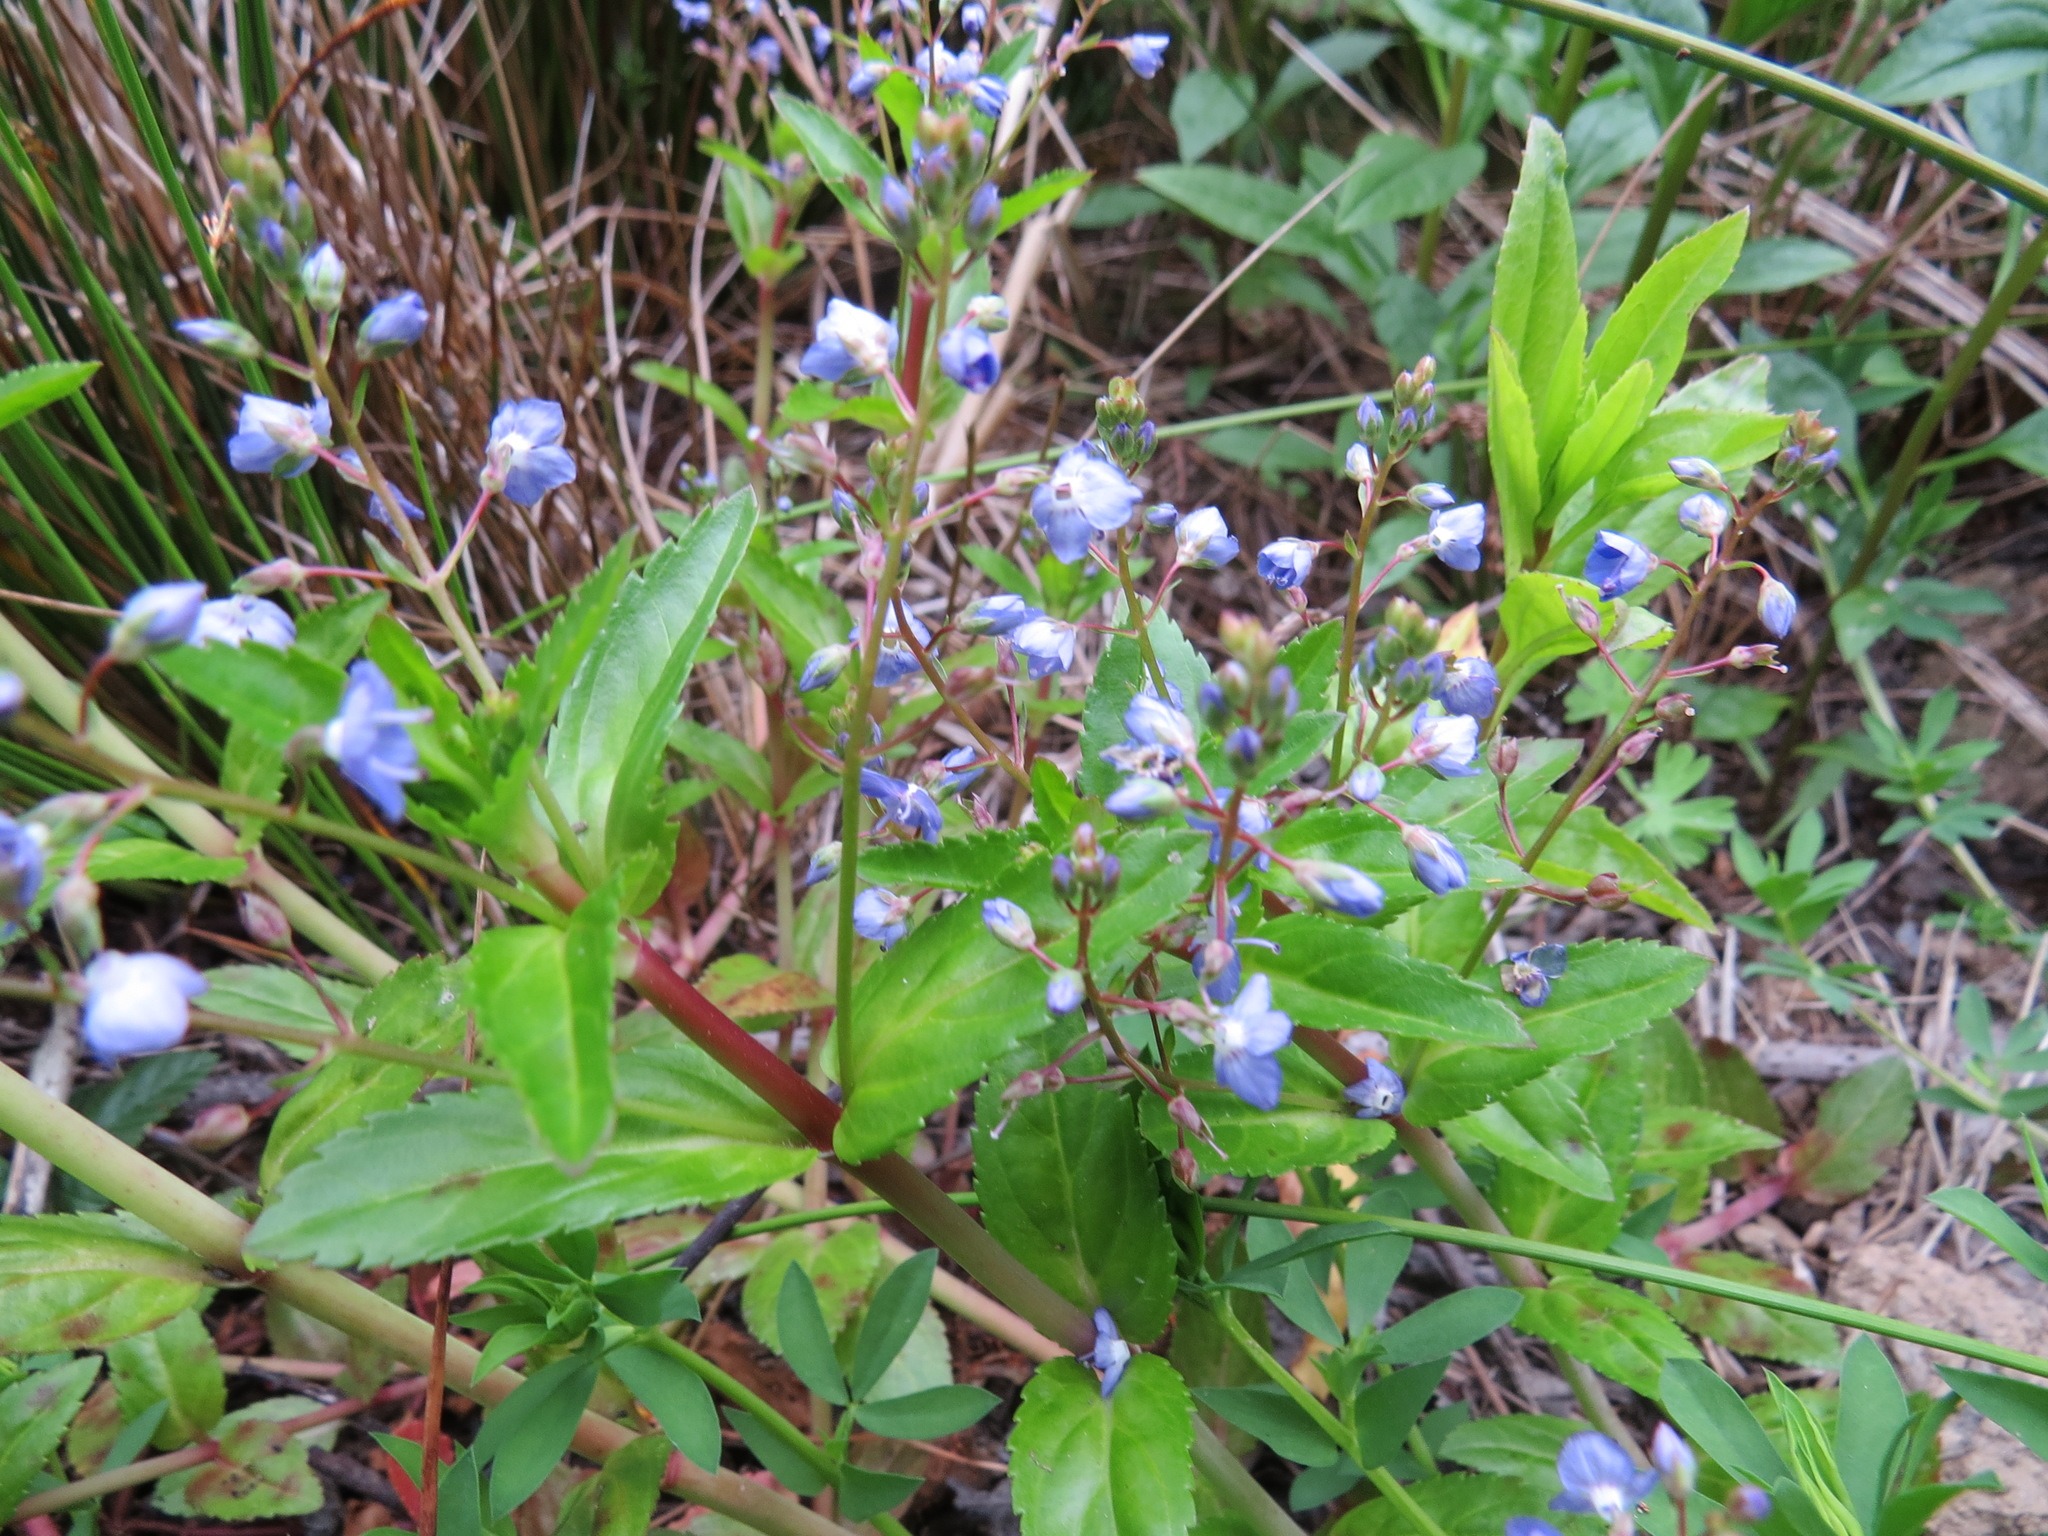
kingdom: Plantae
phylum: Tracheophyta
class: Magnoliopsida
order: Lamiales
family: Plantaginaceae
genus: Veronica
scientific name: Veronica americana
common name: American brooklime
